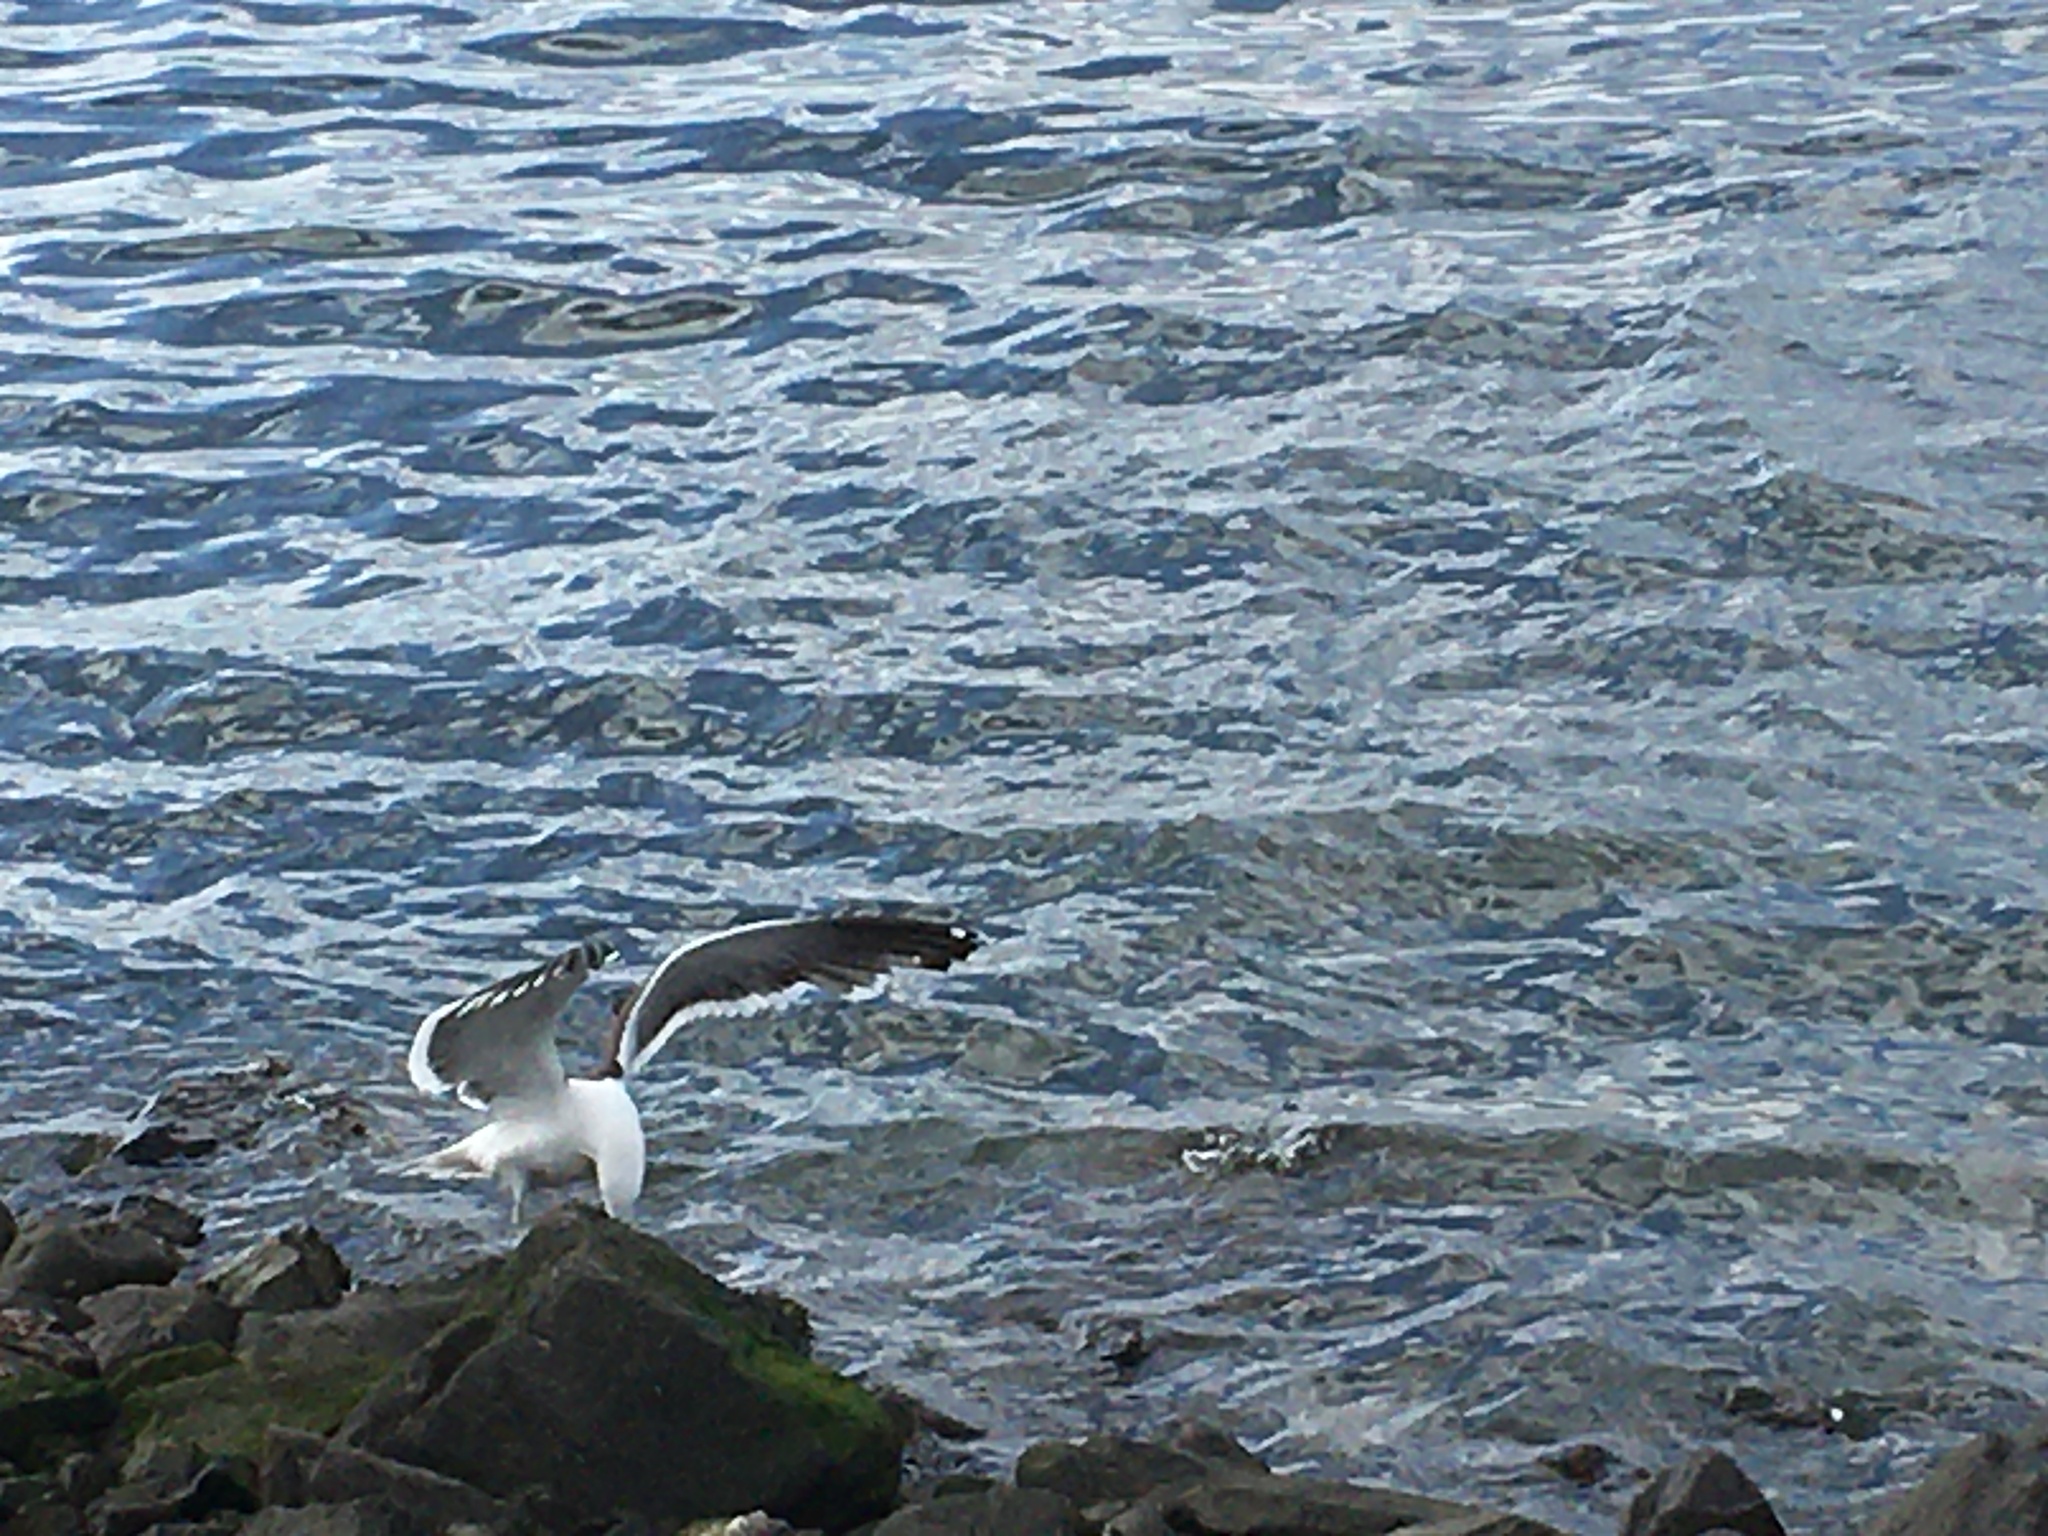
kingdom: Animalia
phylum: Chordata
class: Aves
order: Charadriiformes
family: Laridae
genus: Larus
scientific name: Larus dominicanus
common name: Kelp gull
